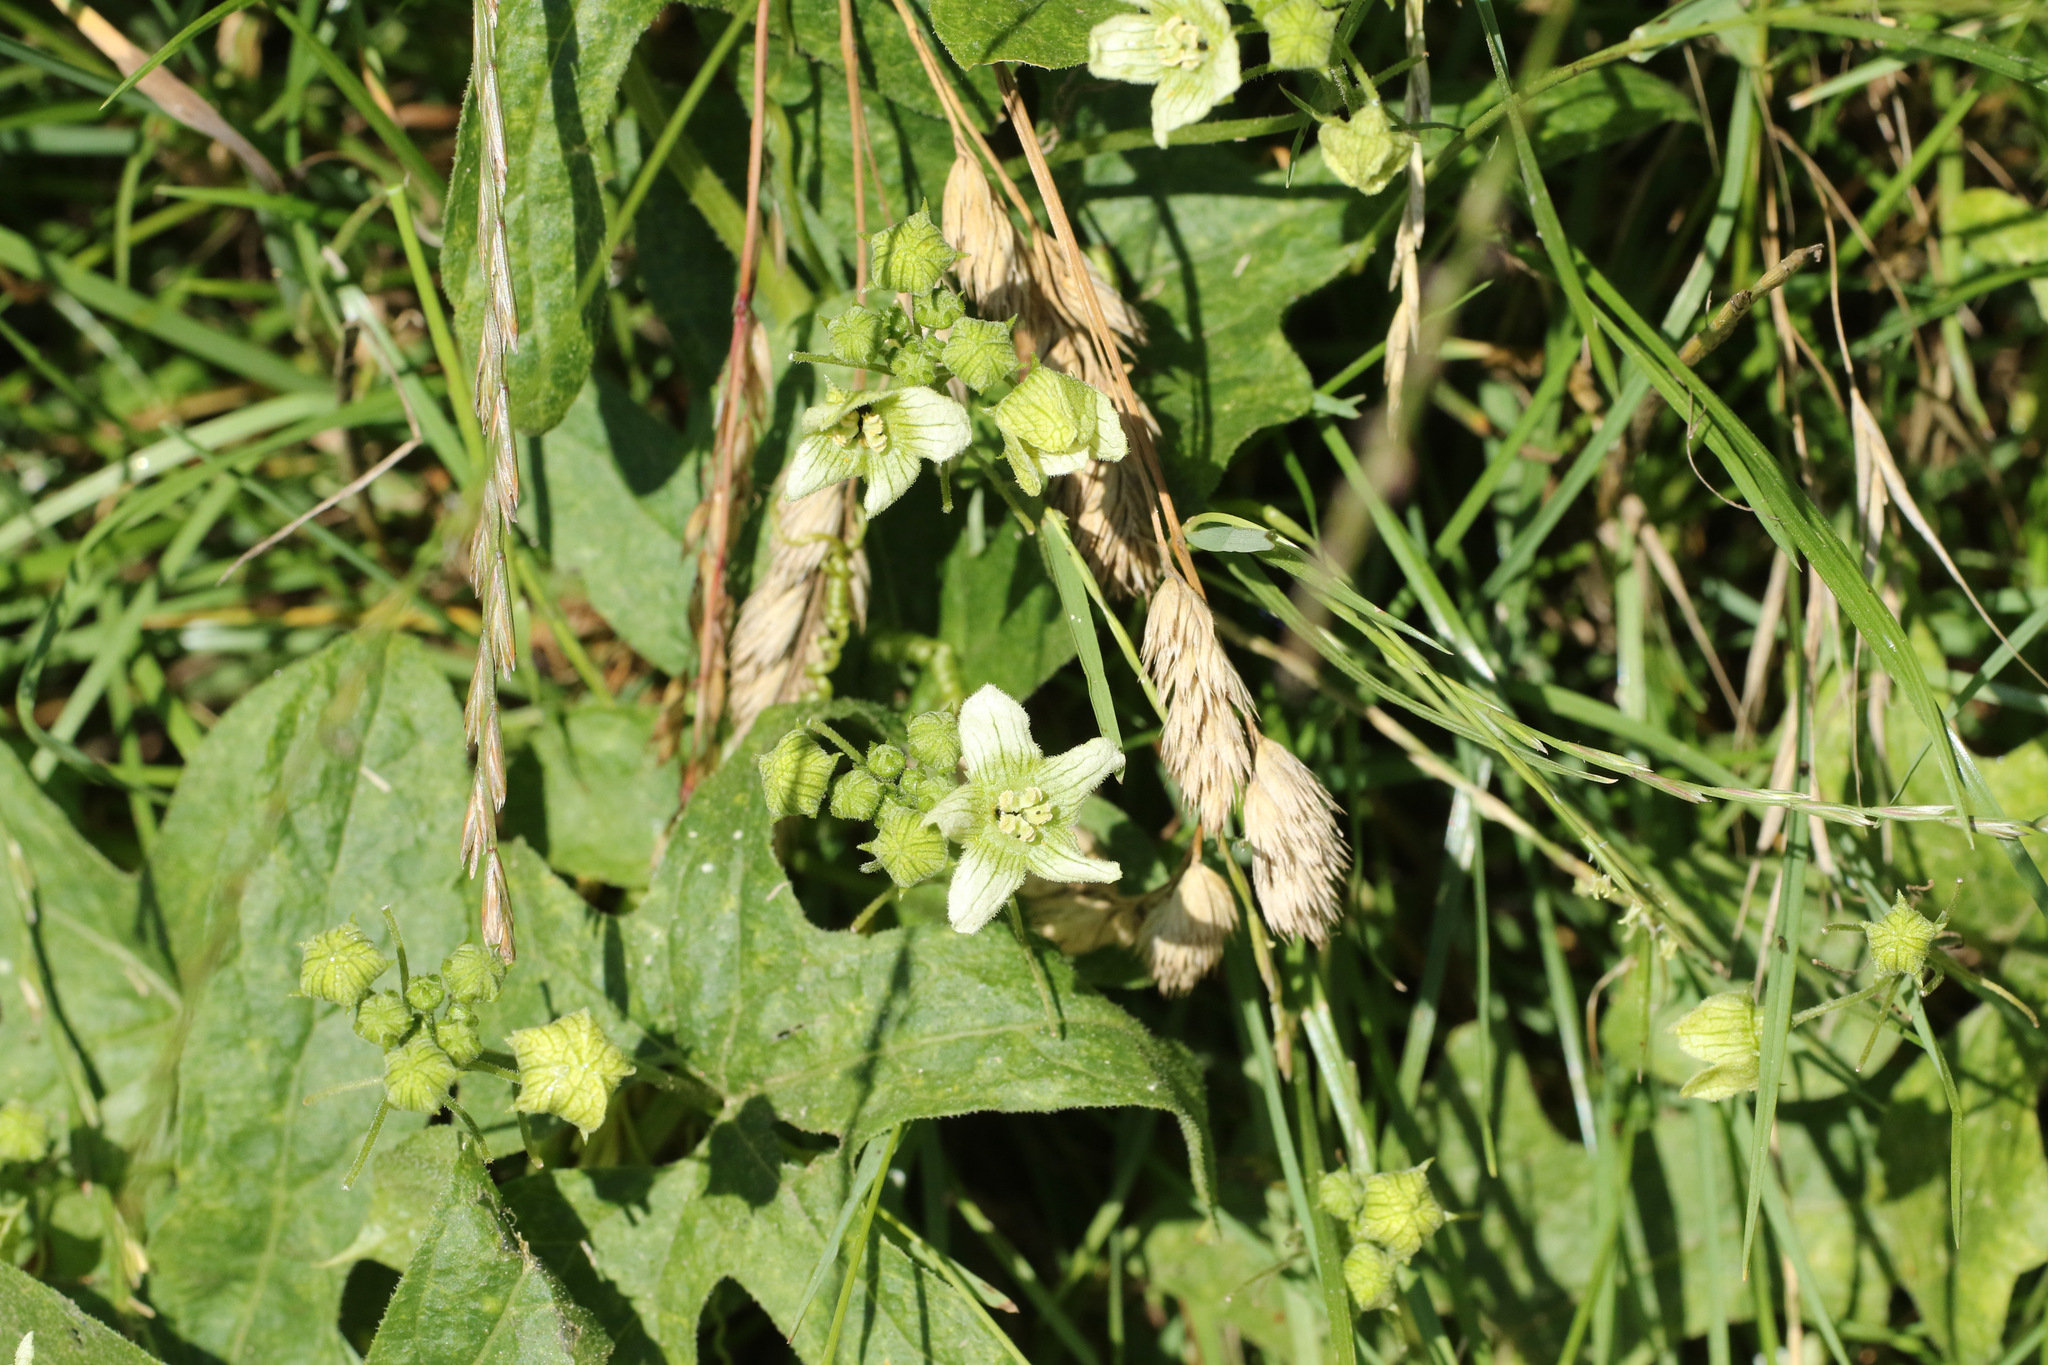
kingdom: Plantae
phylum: Tracheophyta
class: Magnoliopsida
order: Cucurbitales
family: Cucurbitaceae
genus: Bryonia
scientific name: Bryonia cretica
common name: Cretan bryony
